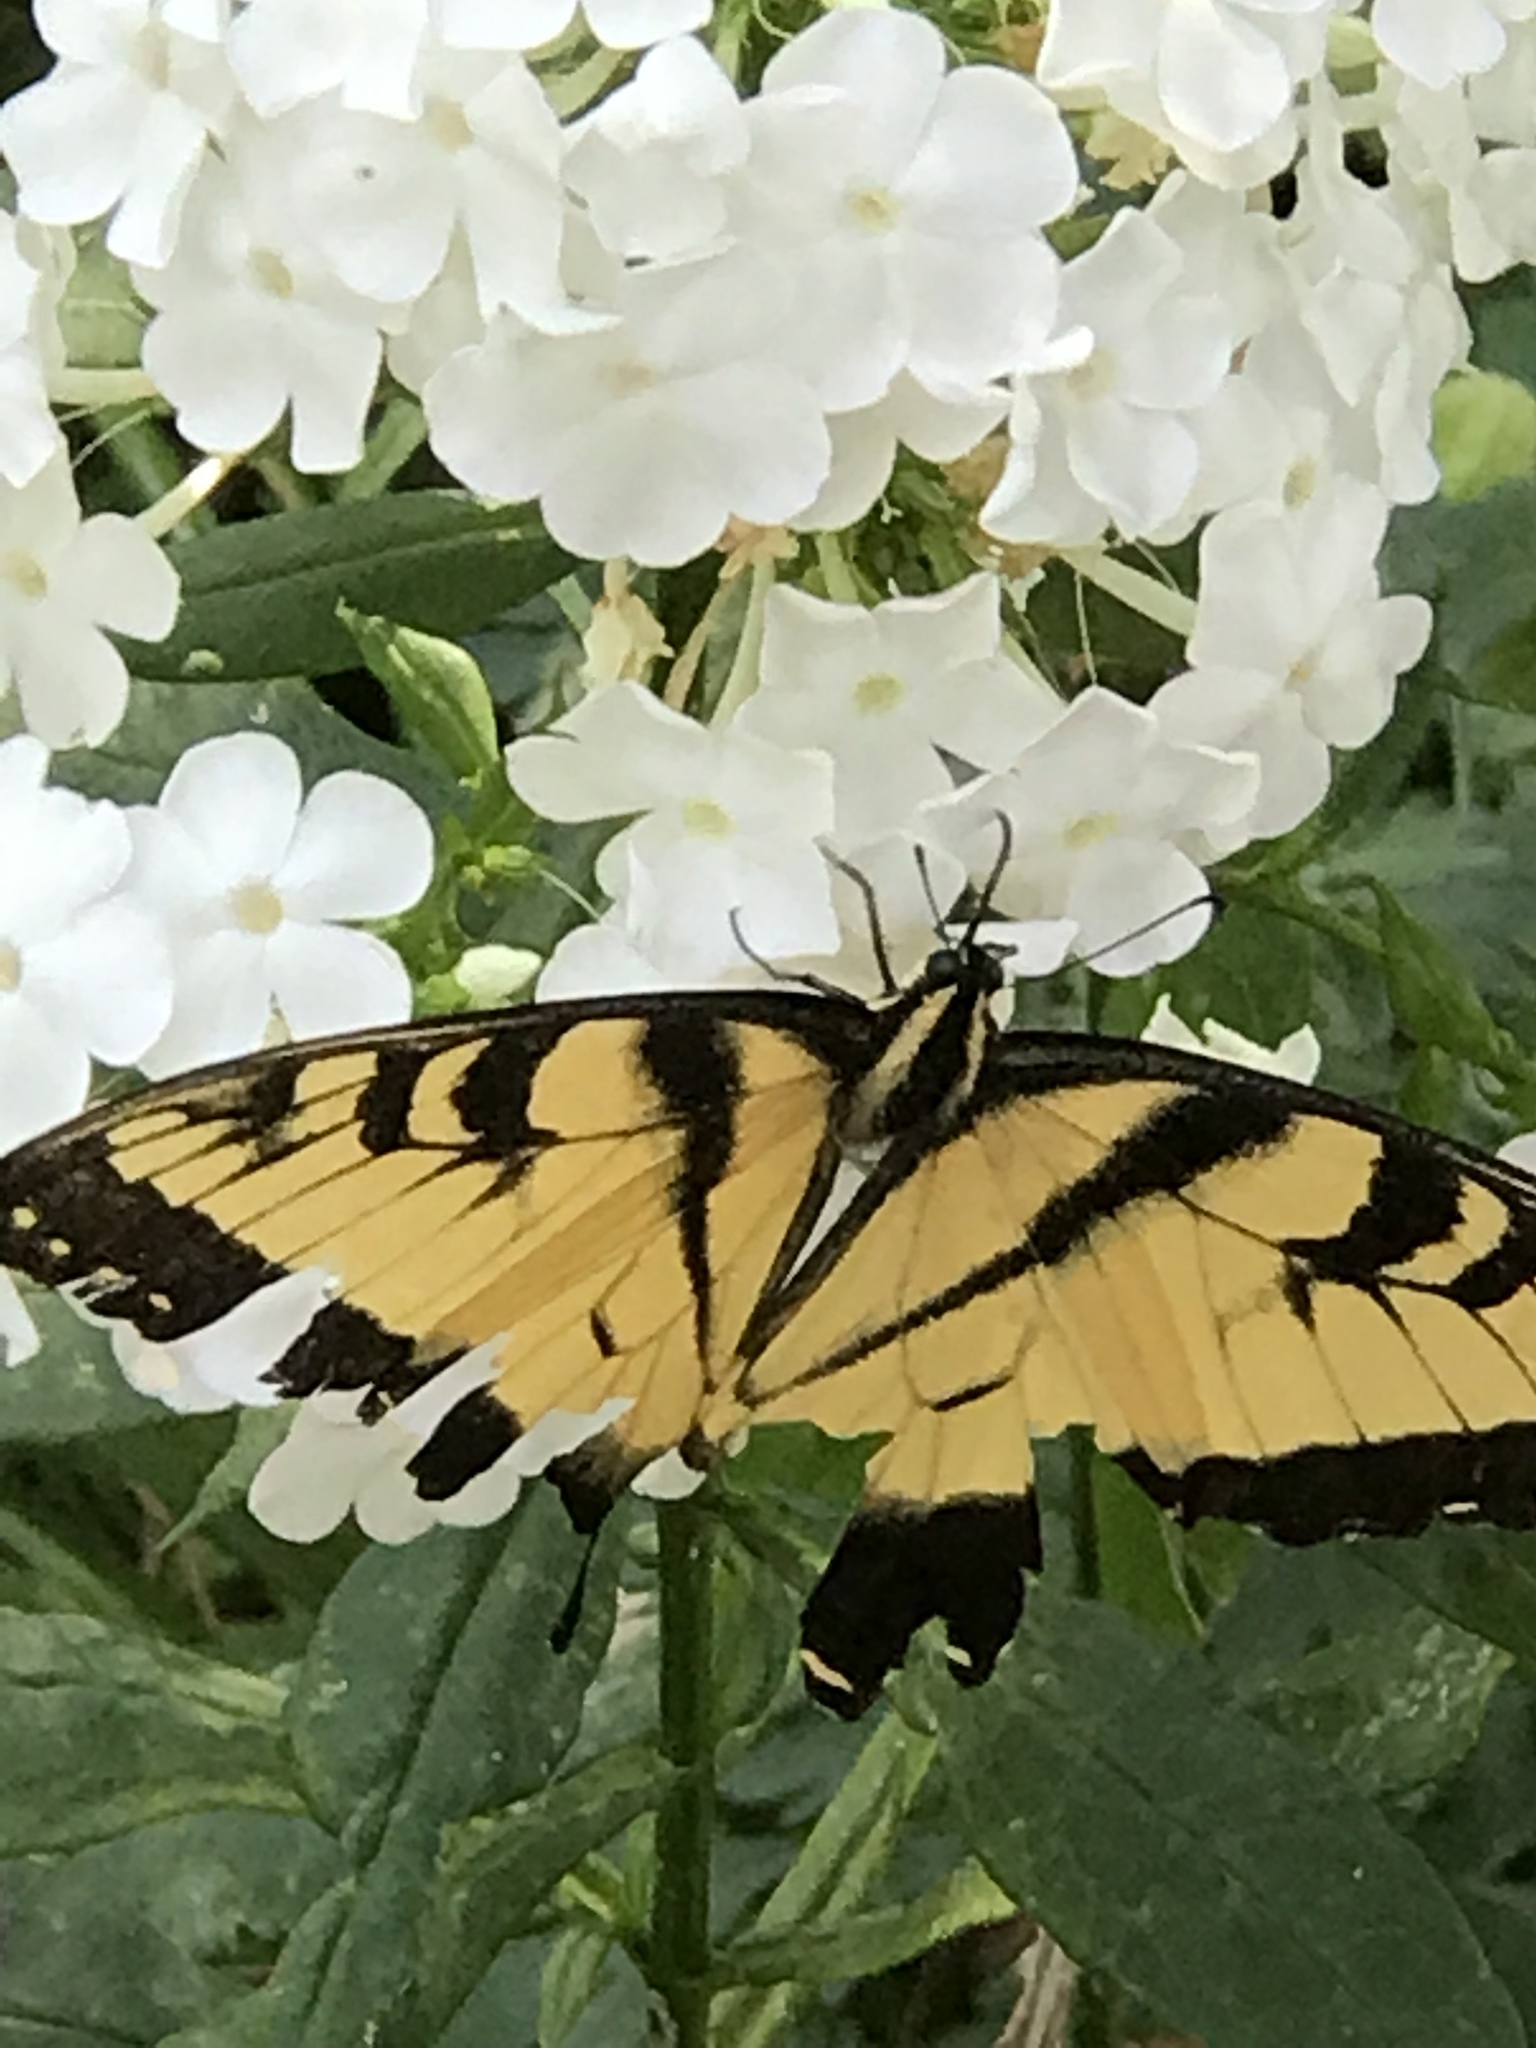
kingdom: Animalia
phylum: Arthropoda
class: Insecta
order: Lepidoptera
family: Papilionidae
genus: Papilio
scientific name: Papilio glaucus
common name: Tiger swallowtail
